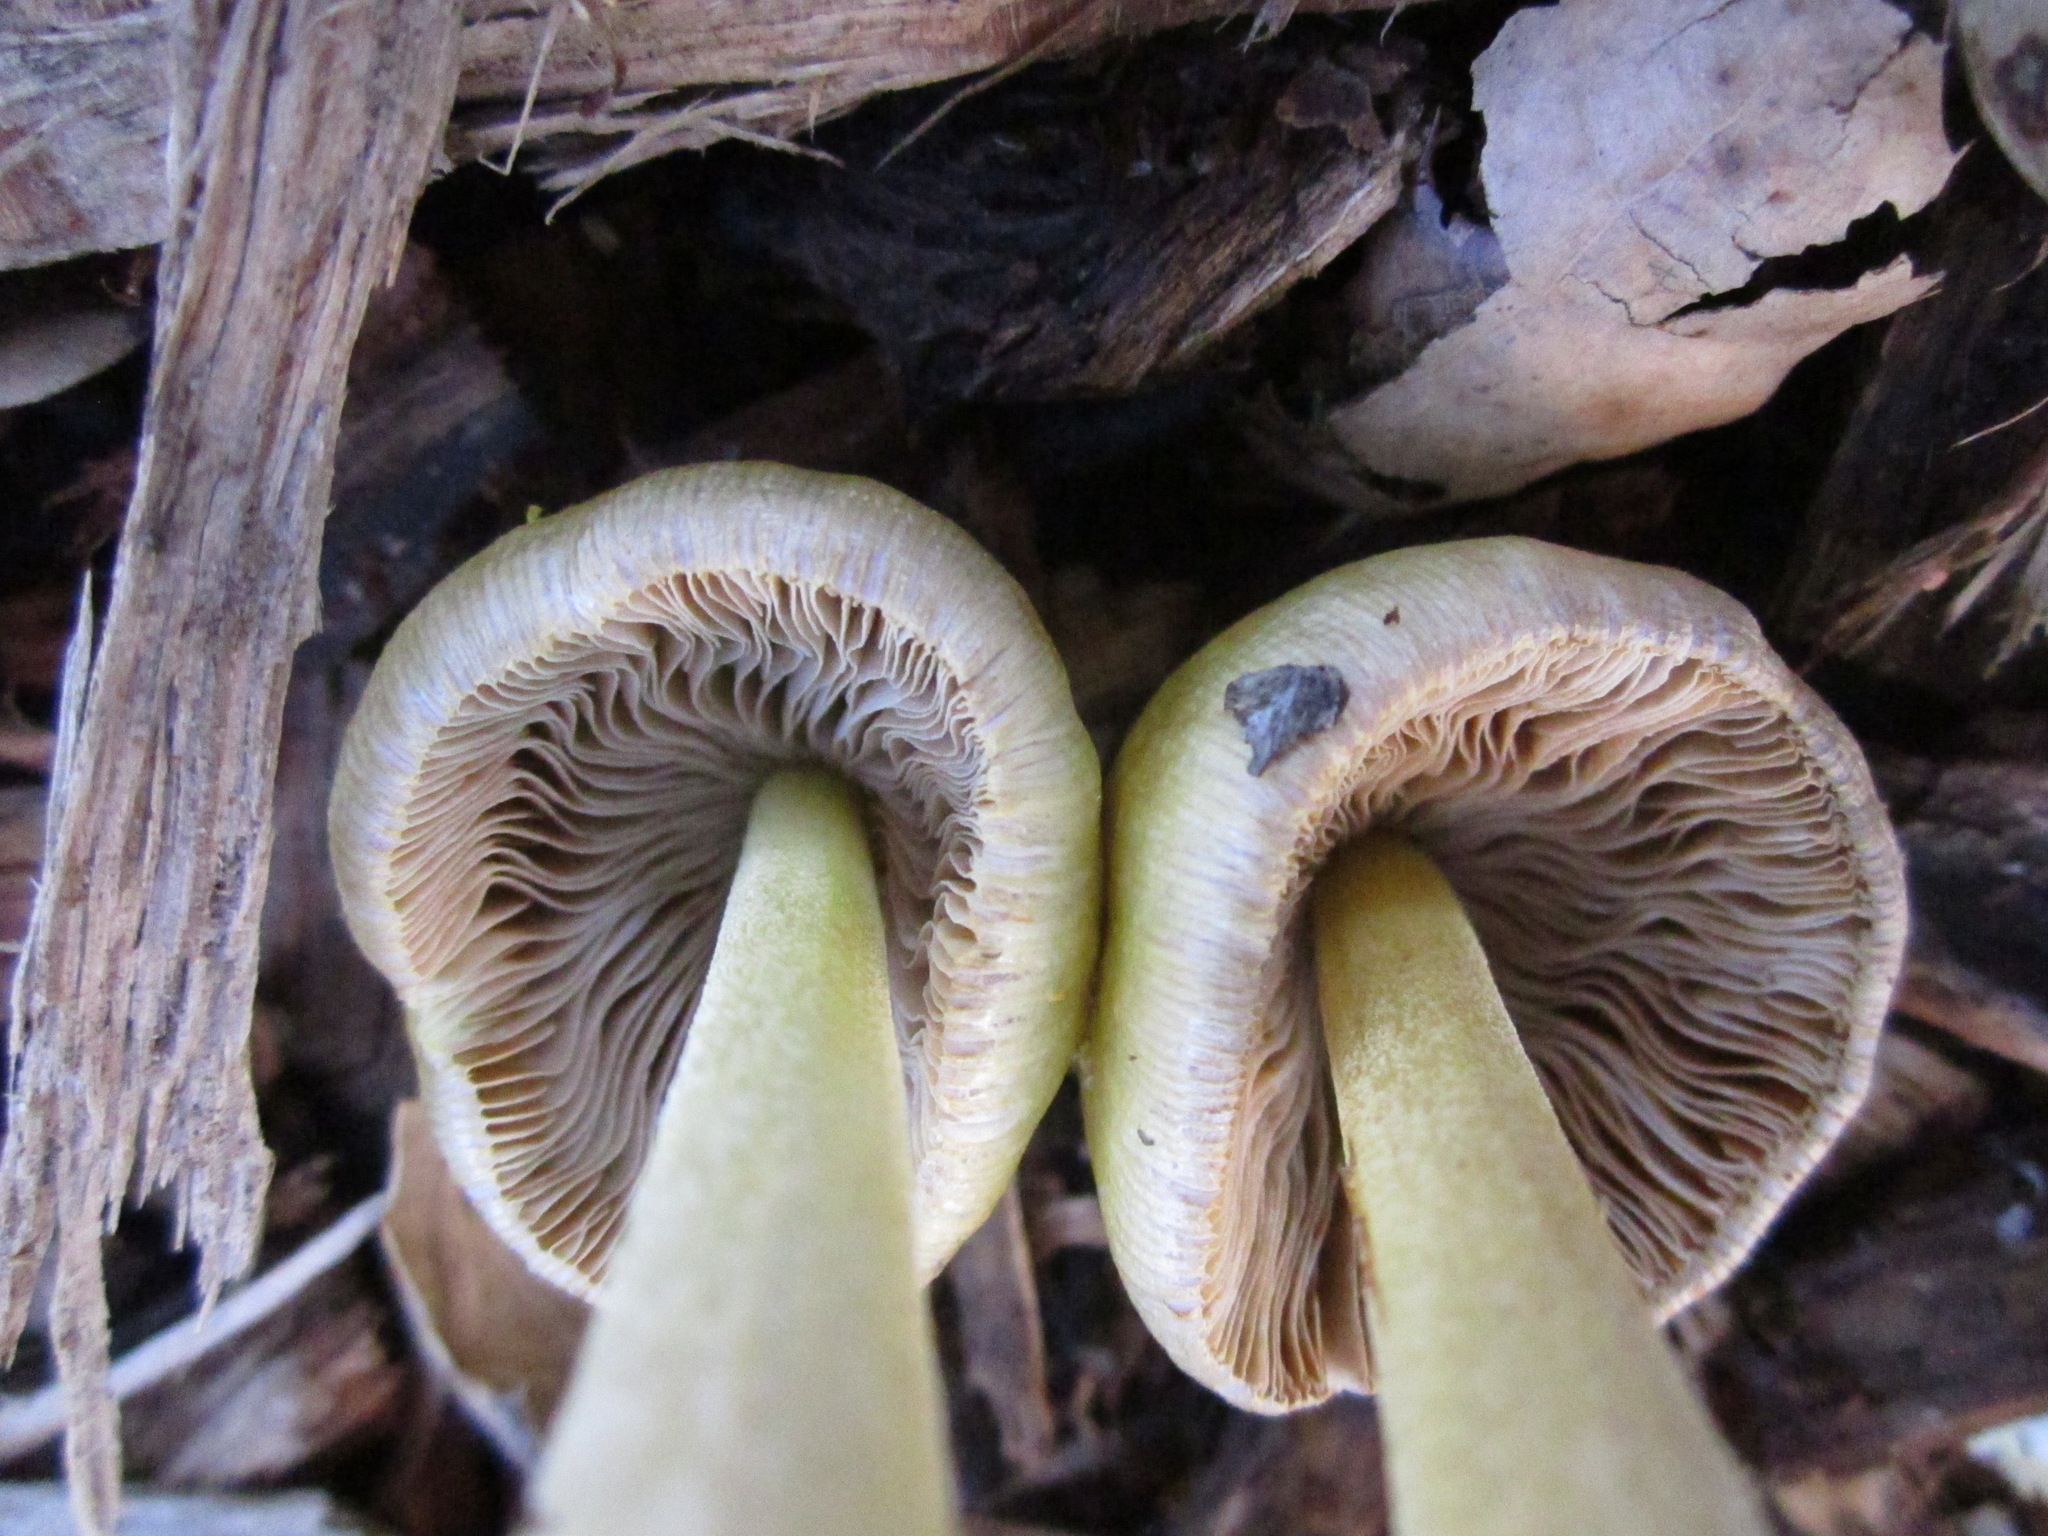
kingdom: Fungi
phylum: Basidiomycota
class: Agaricomycetes
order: Agaricales
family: Bolbitiaceae
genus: Bolbitius
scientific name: Bolbitius titubans
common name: Yellow fieldcap
